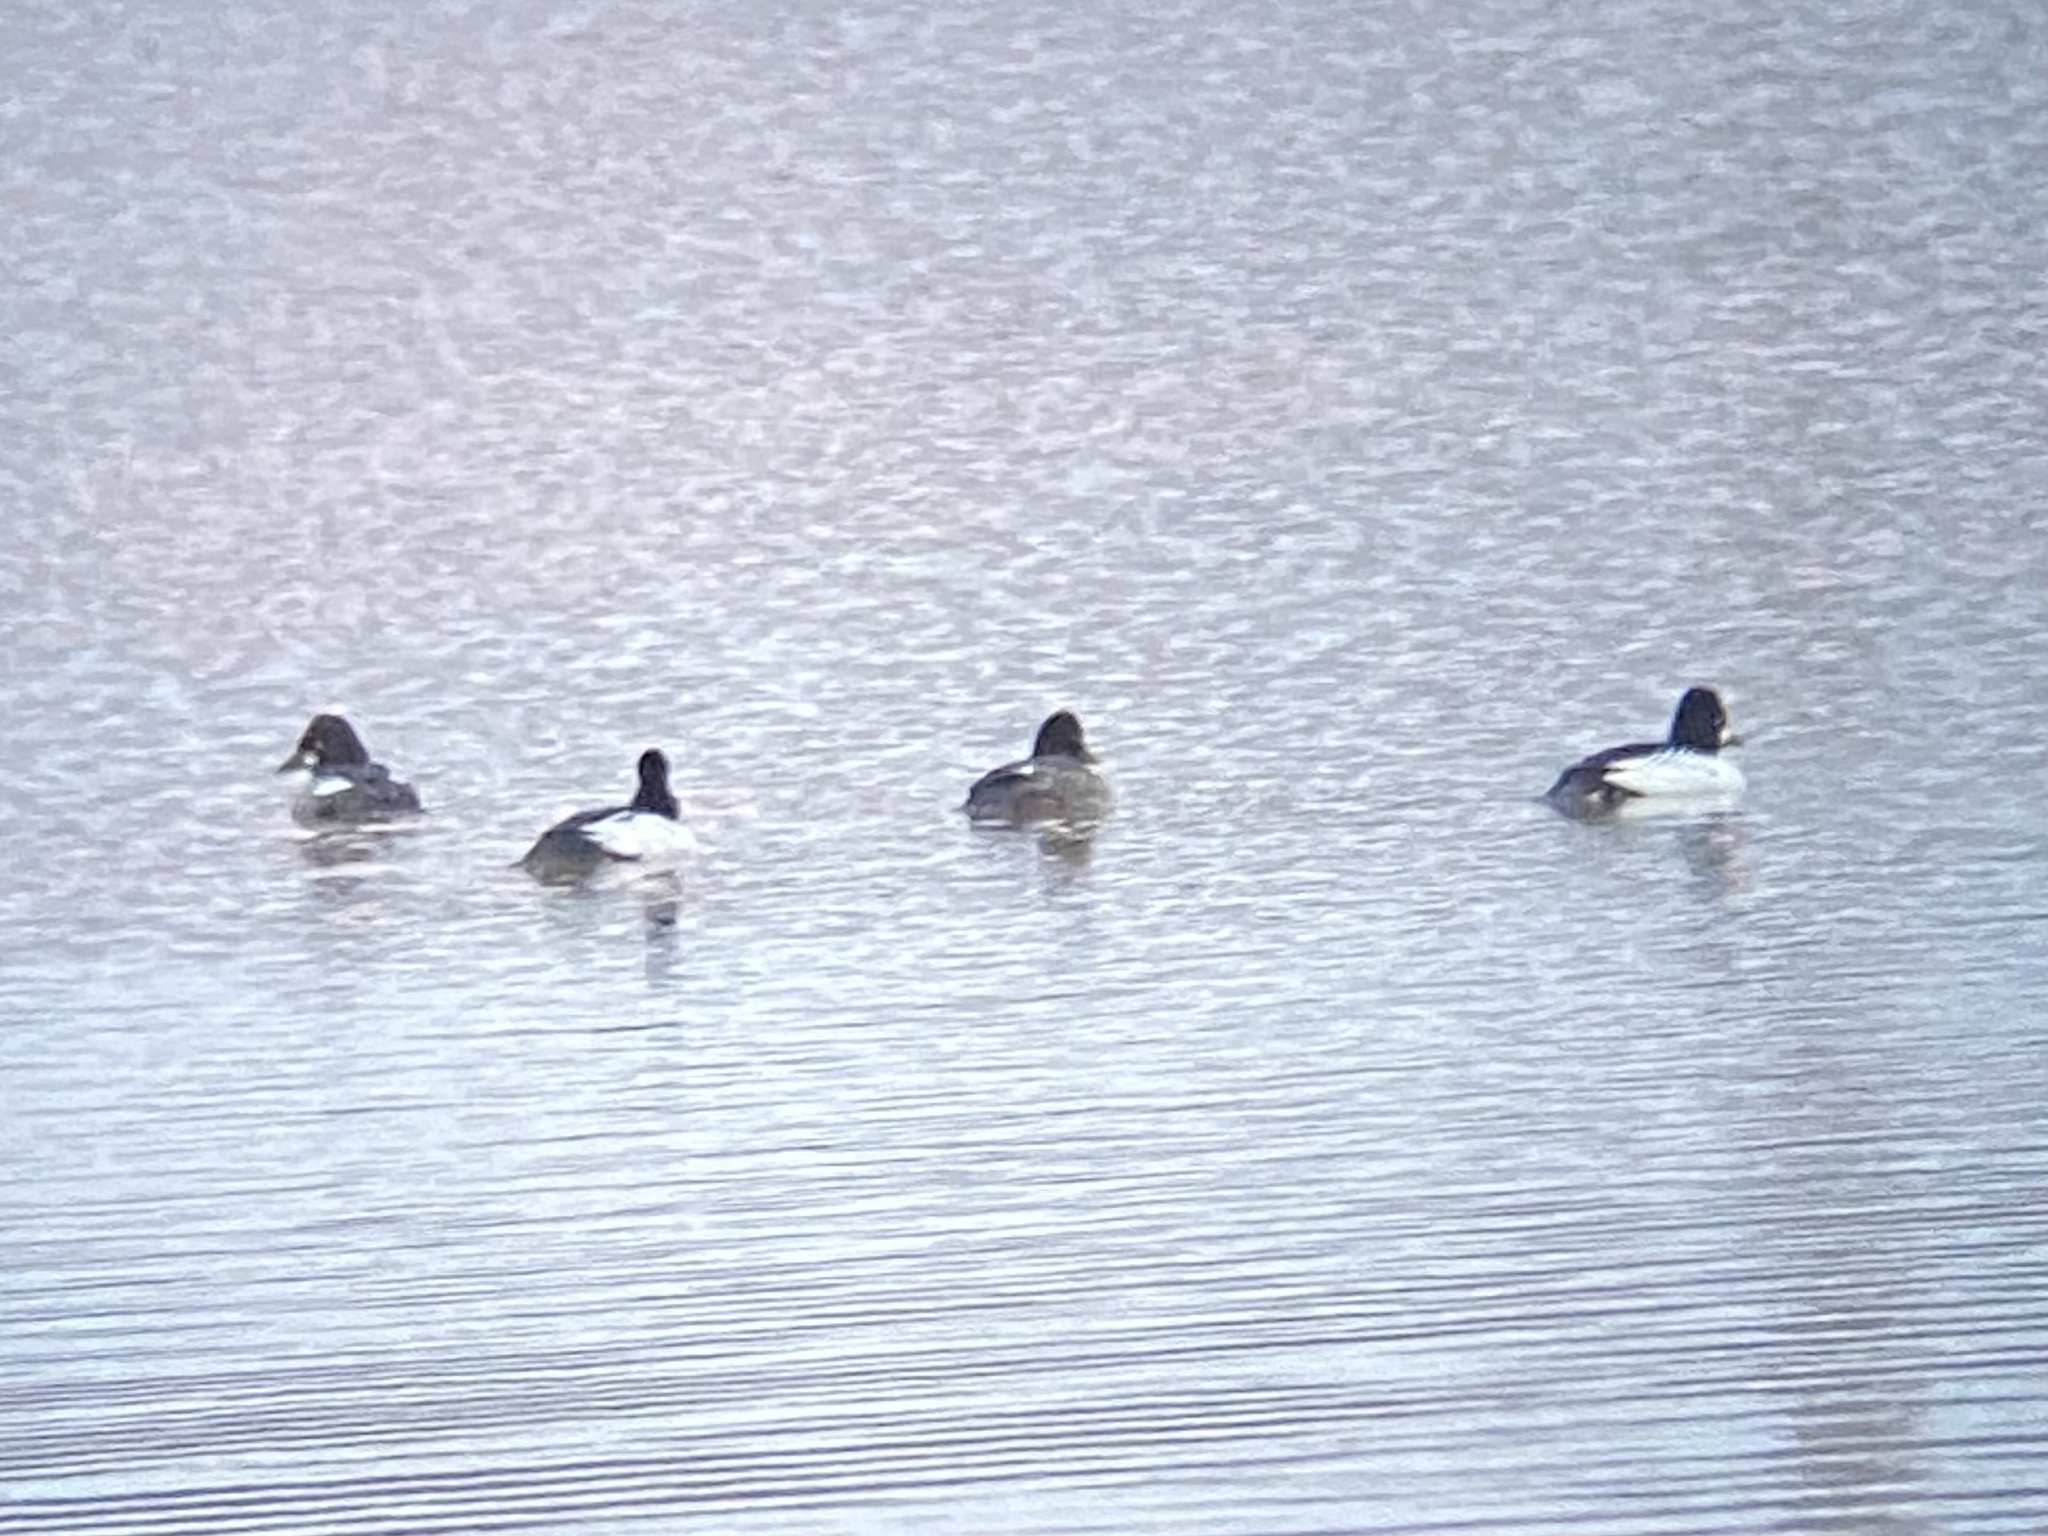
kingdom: Animalia
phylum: Chordata
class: Aves
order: Anseriformes
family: Anatidae
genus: Bucephala
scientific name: Bucephala clangula
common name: Common goldeneye
